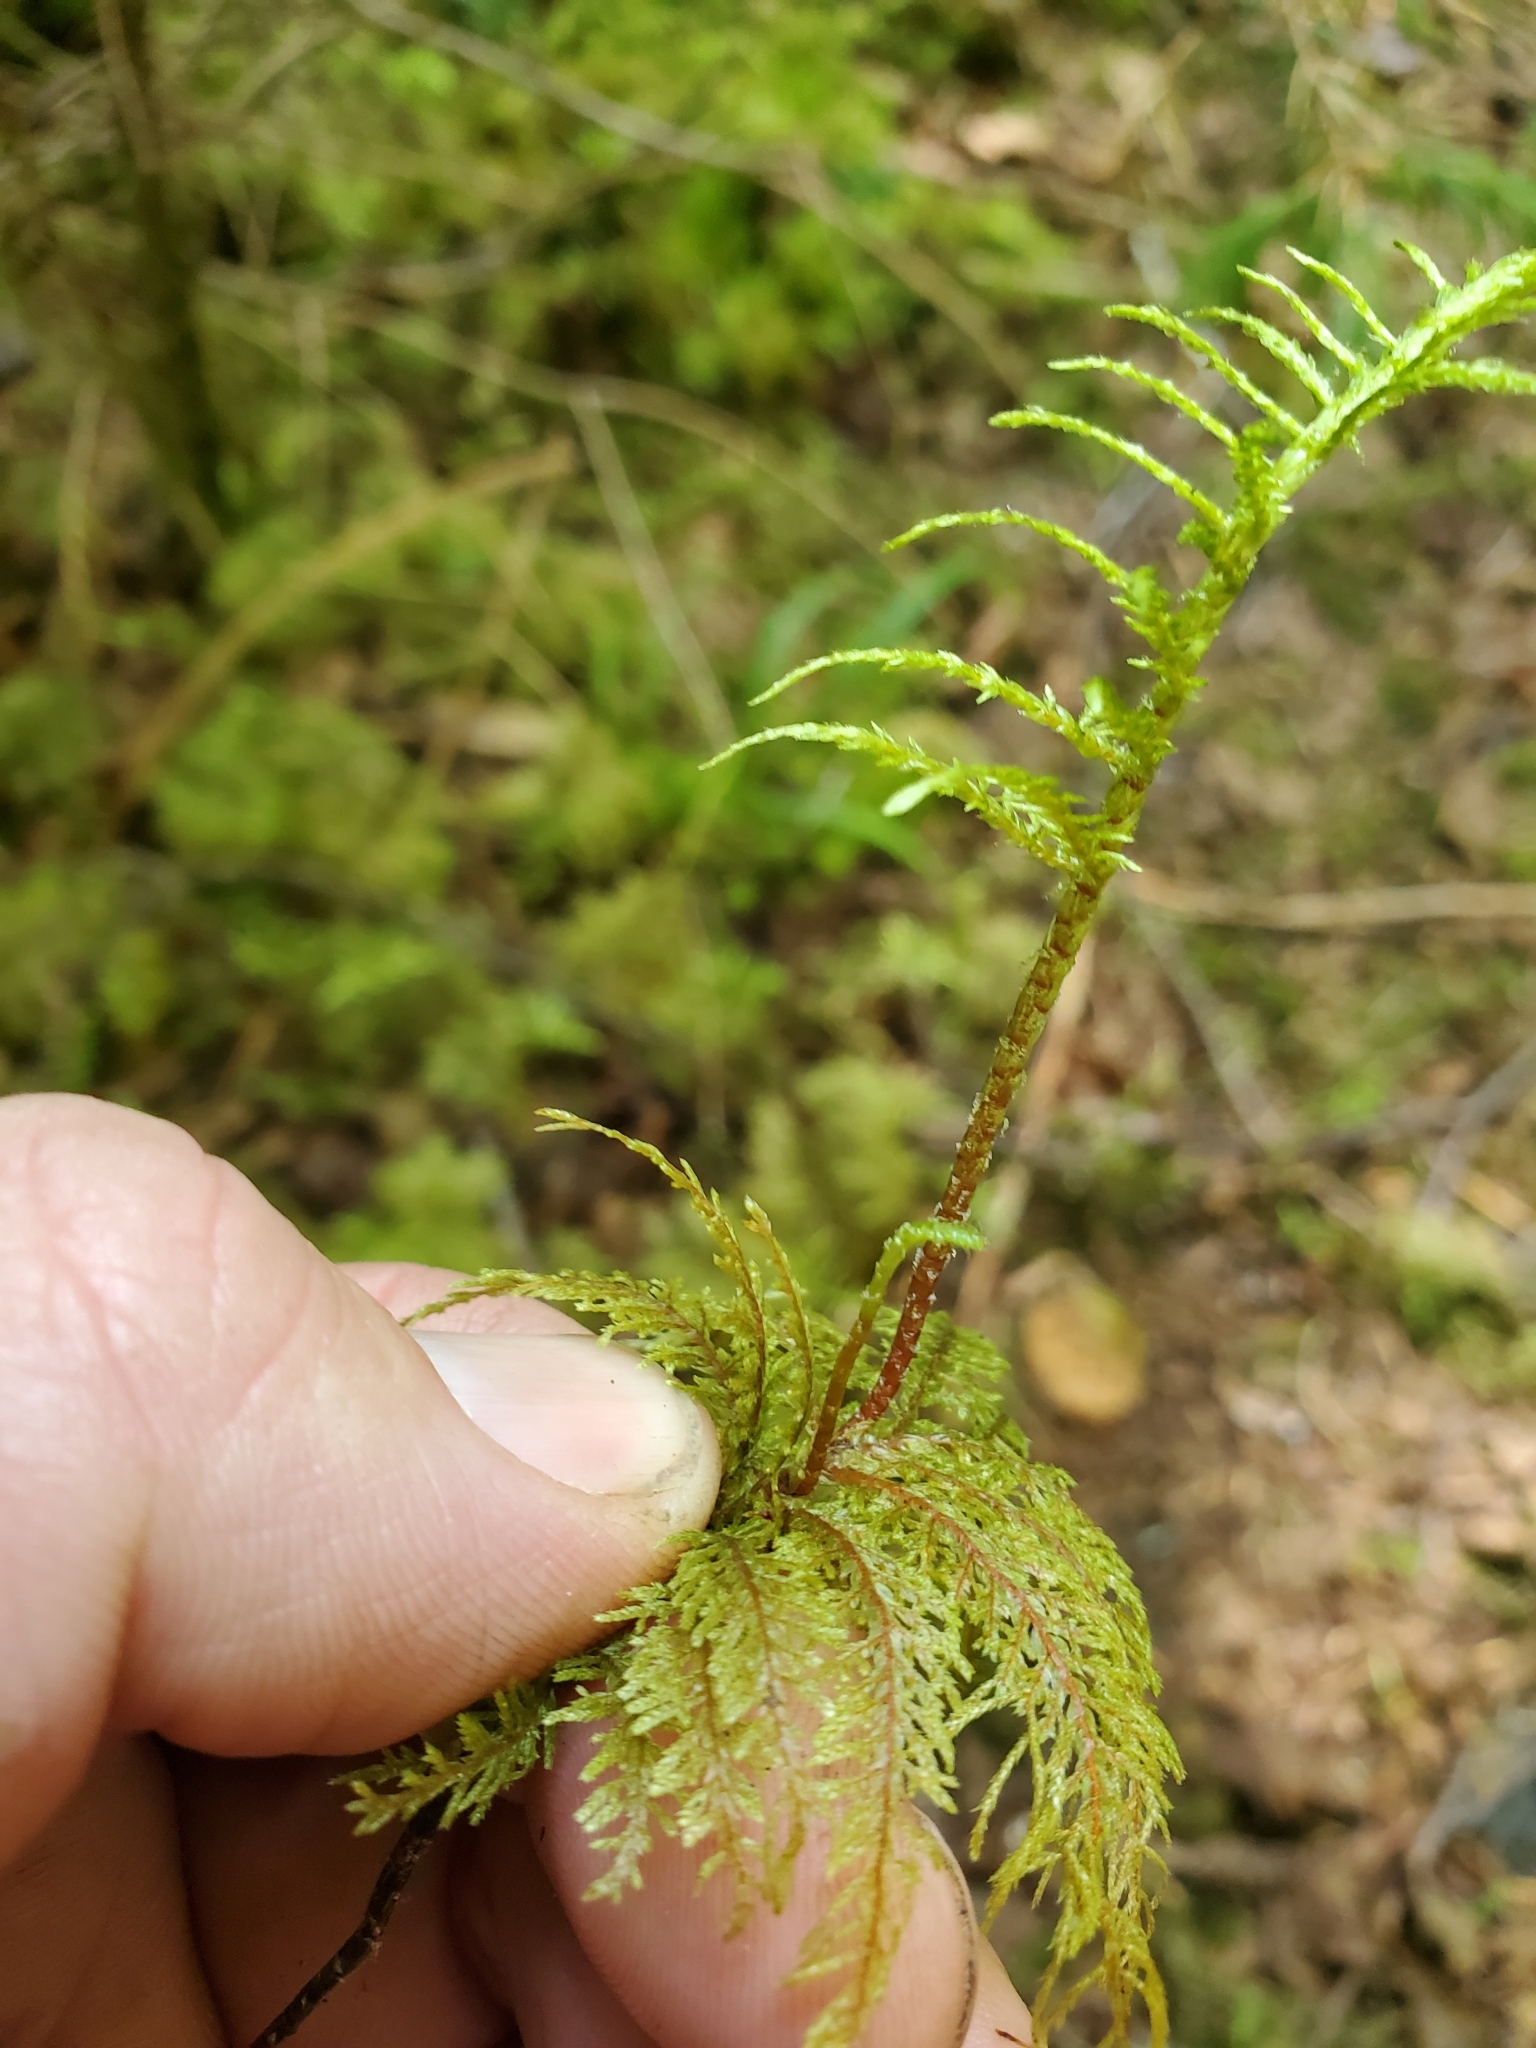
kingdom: Plantae
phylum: Bryophyta
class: Bryopsida
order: Hypnales
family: Hylocomiaceae
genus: Hylocomium
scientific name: Hylocomium splendens
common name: Stairstep moss
